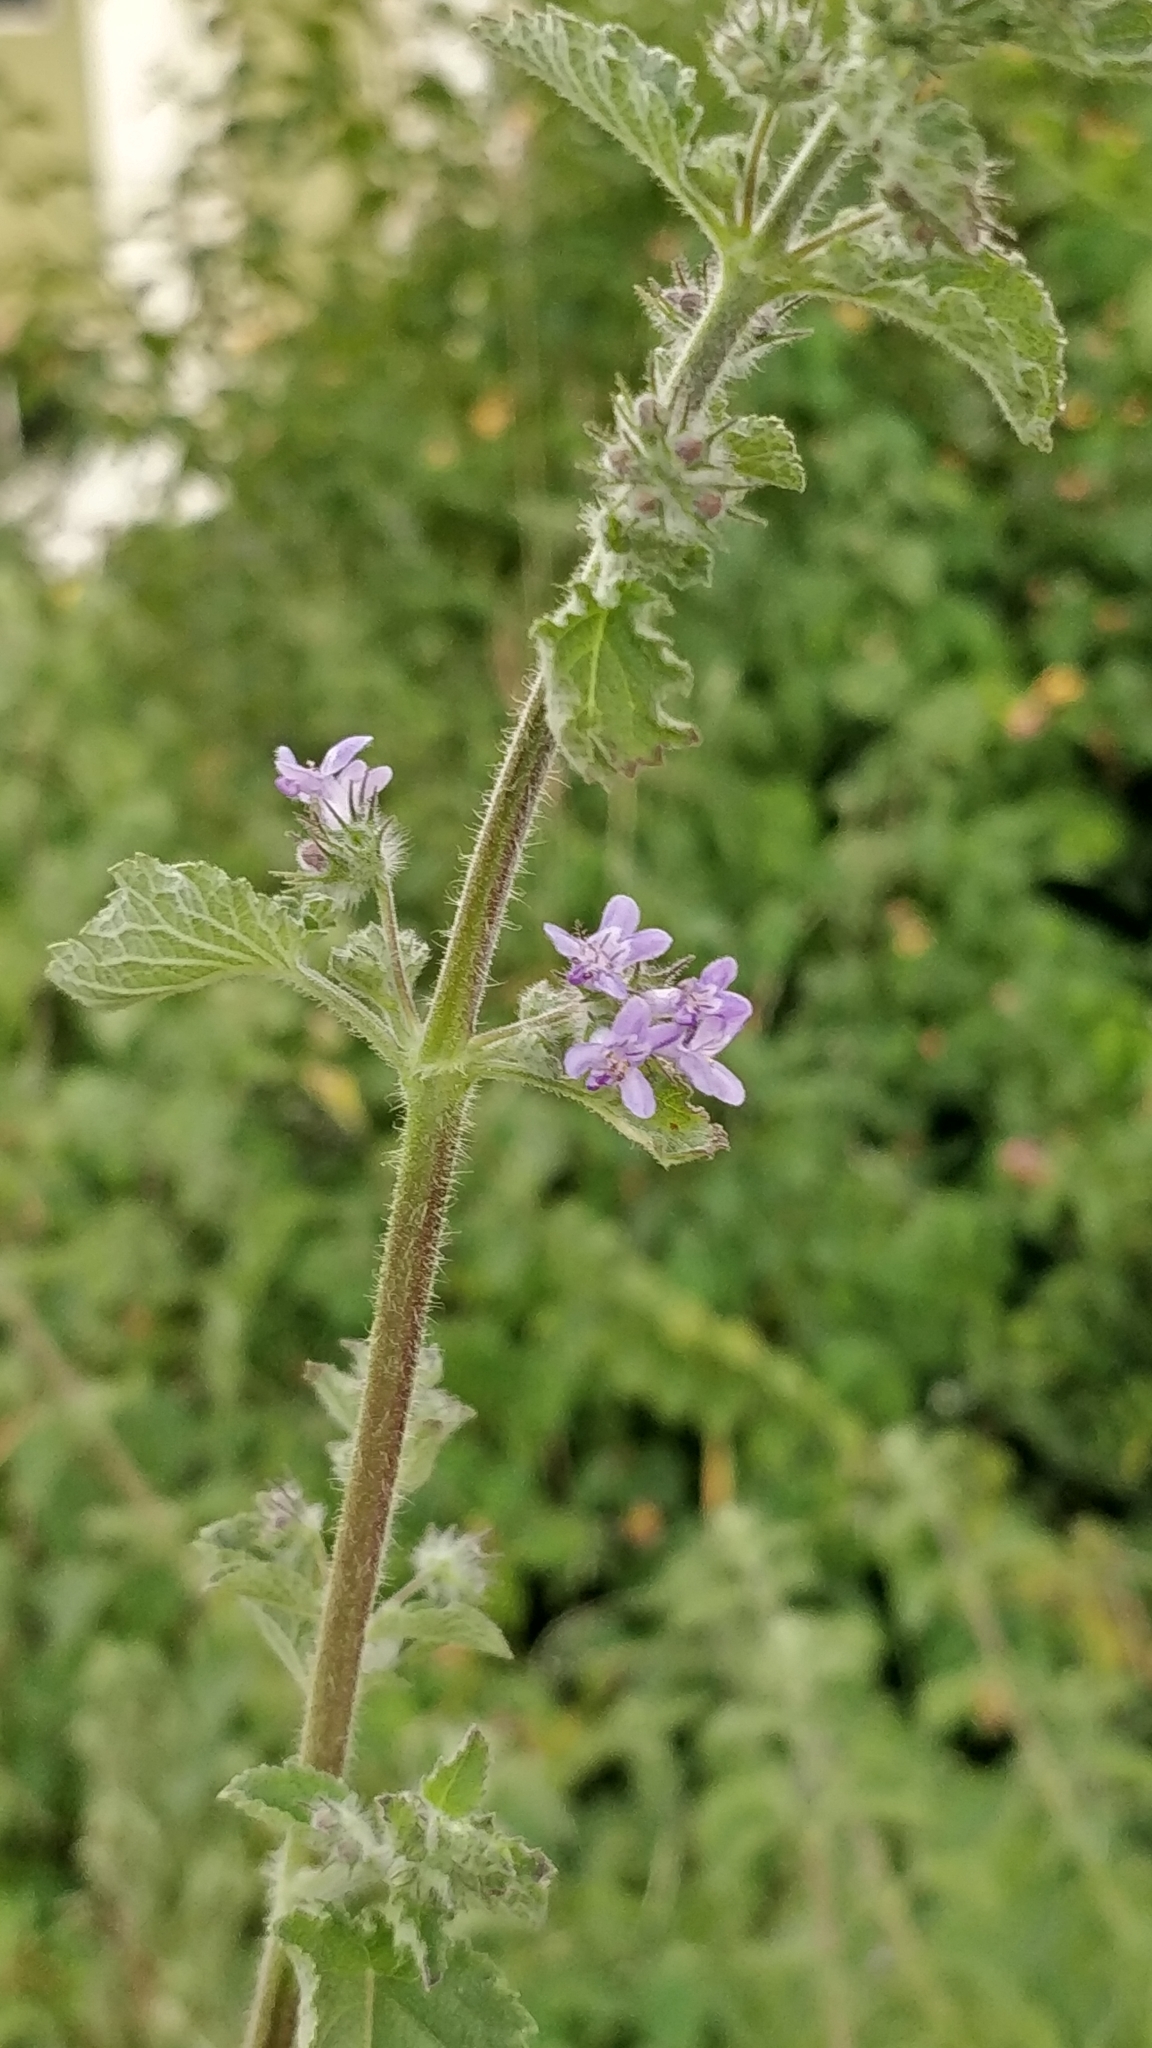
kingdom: Plantae
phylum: Tracheophyta
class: Magnoliopsida
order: Lamiales
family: Lamiaceae
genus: Mesosphaerum
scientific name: Mesosphaerum suaveolens
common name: Pignut
